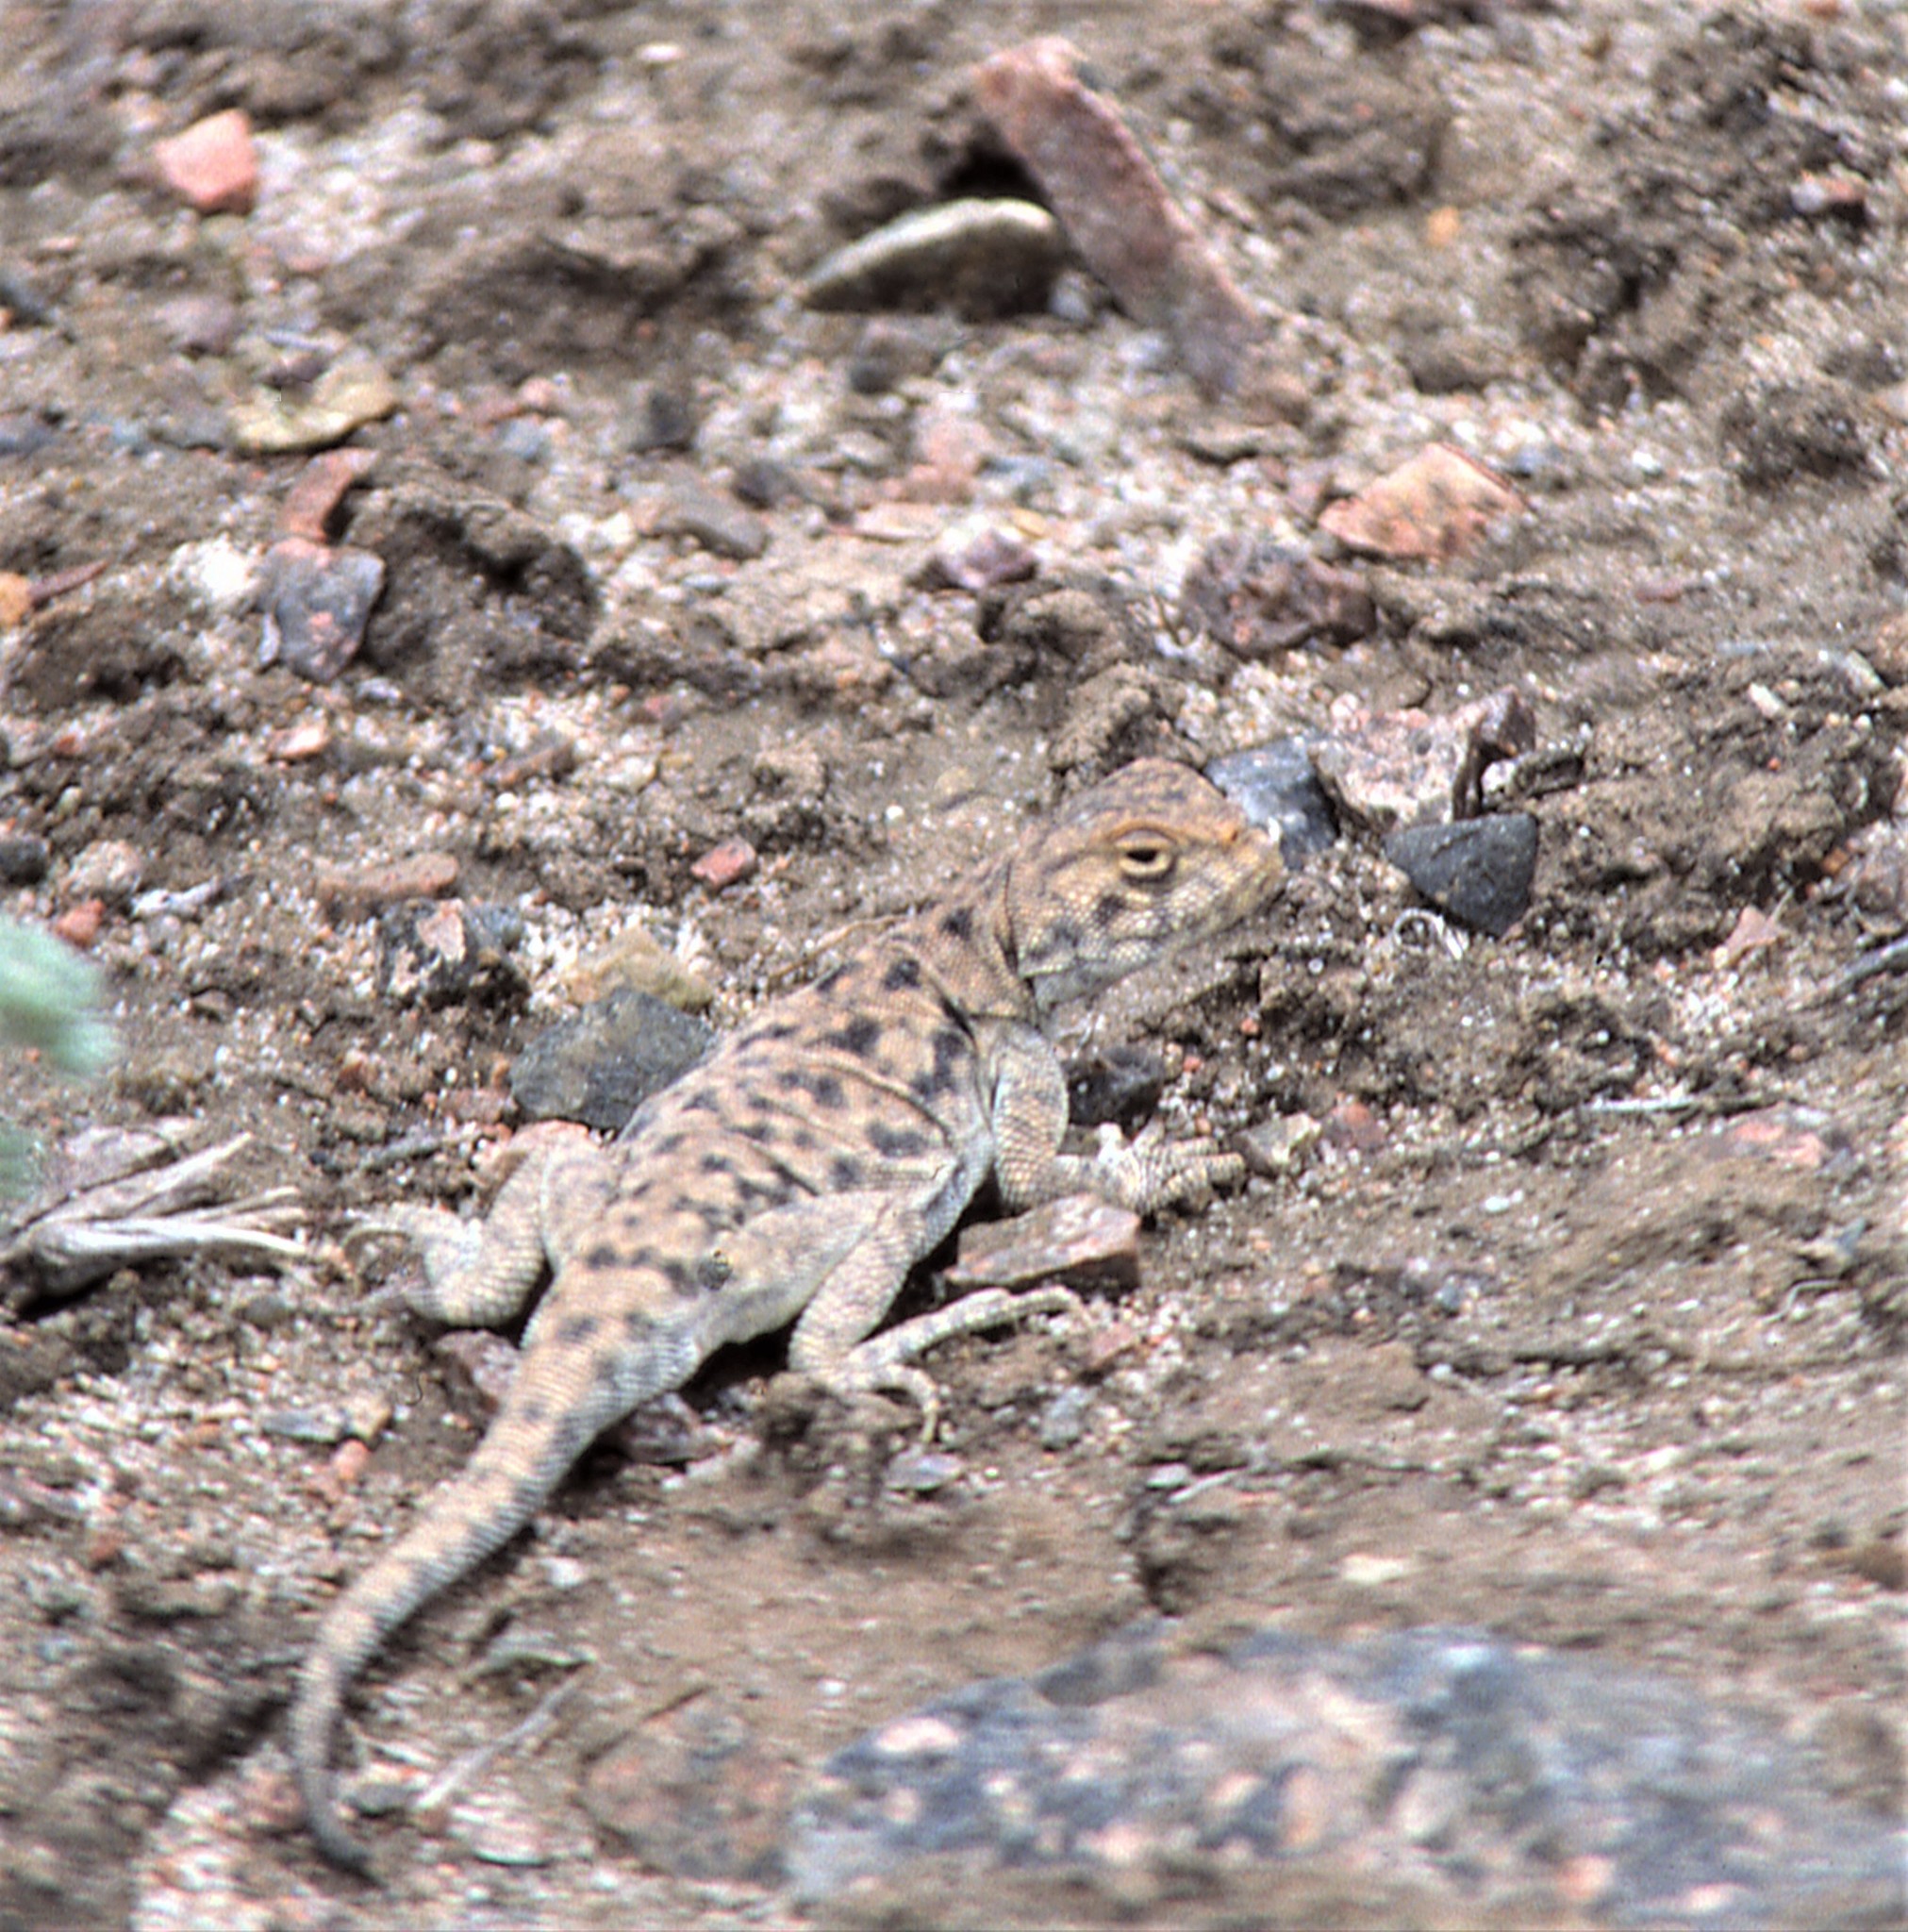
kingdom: Animalia
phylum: Chordata
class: Squamata
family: Agamidae
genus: Phrynocephalus
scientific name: Phrynocephalus vlangalii
